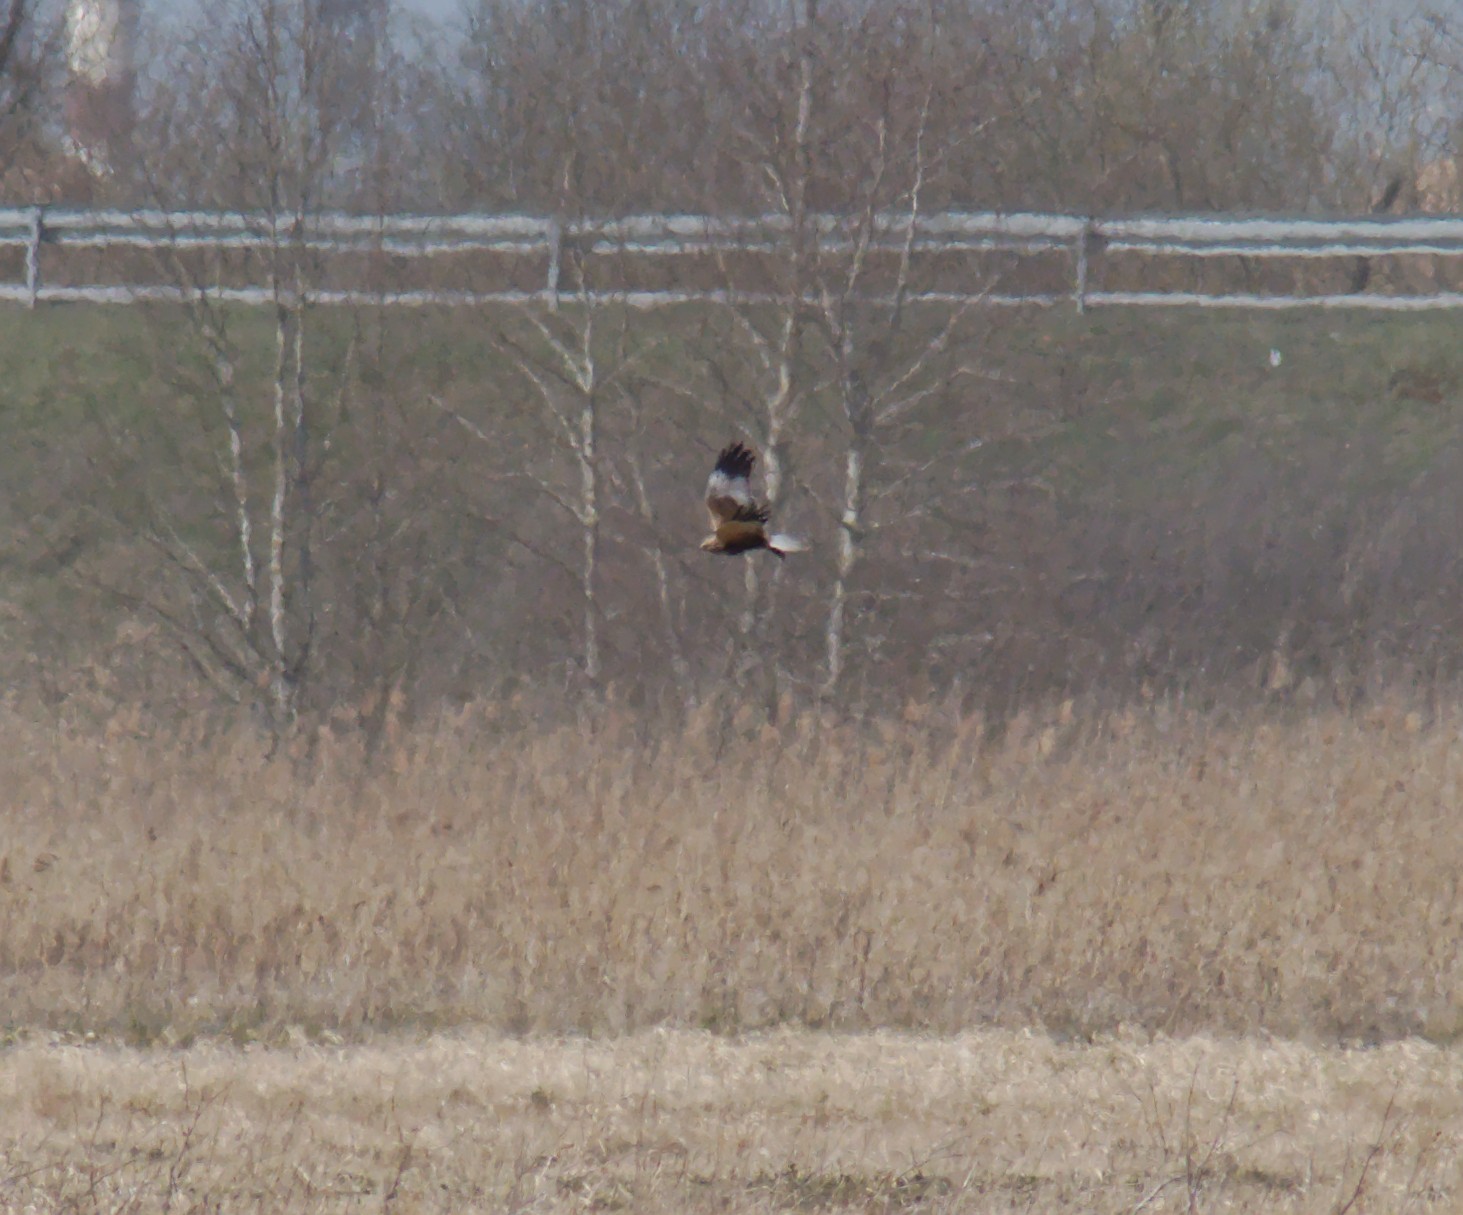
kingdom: Animalia
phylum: Chordata
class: Aves
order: Accipitriformes
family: Accipitridae
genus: Circus
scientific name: Circus aeruginosus
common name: Western marsh harrier
